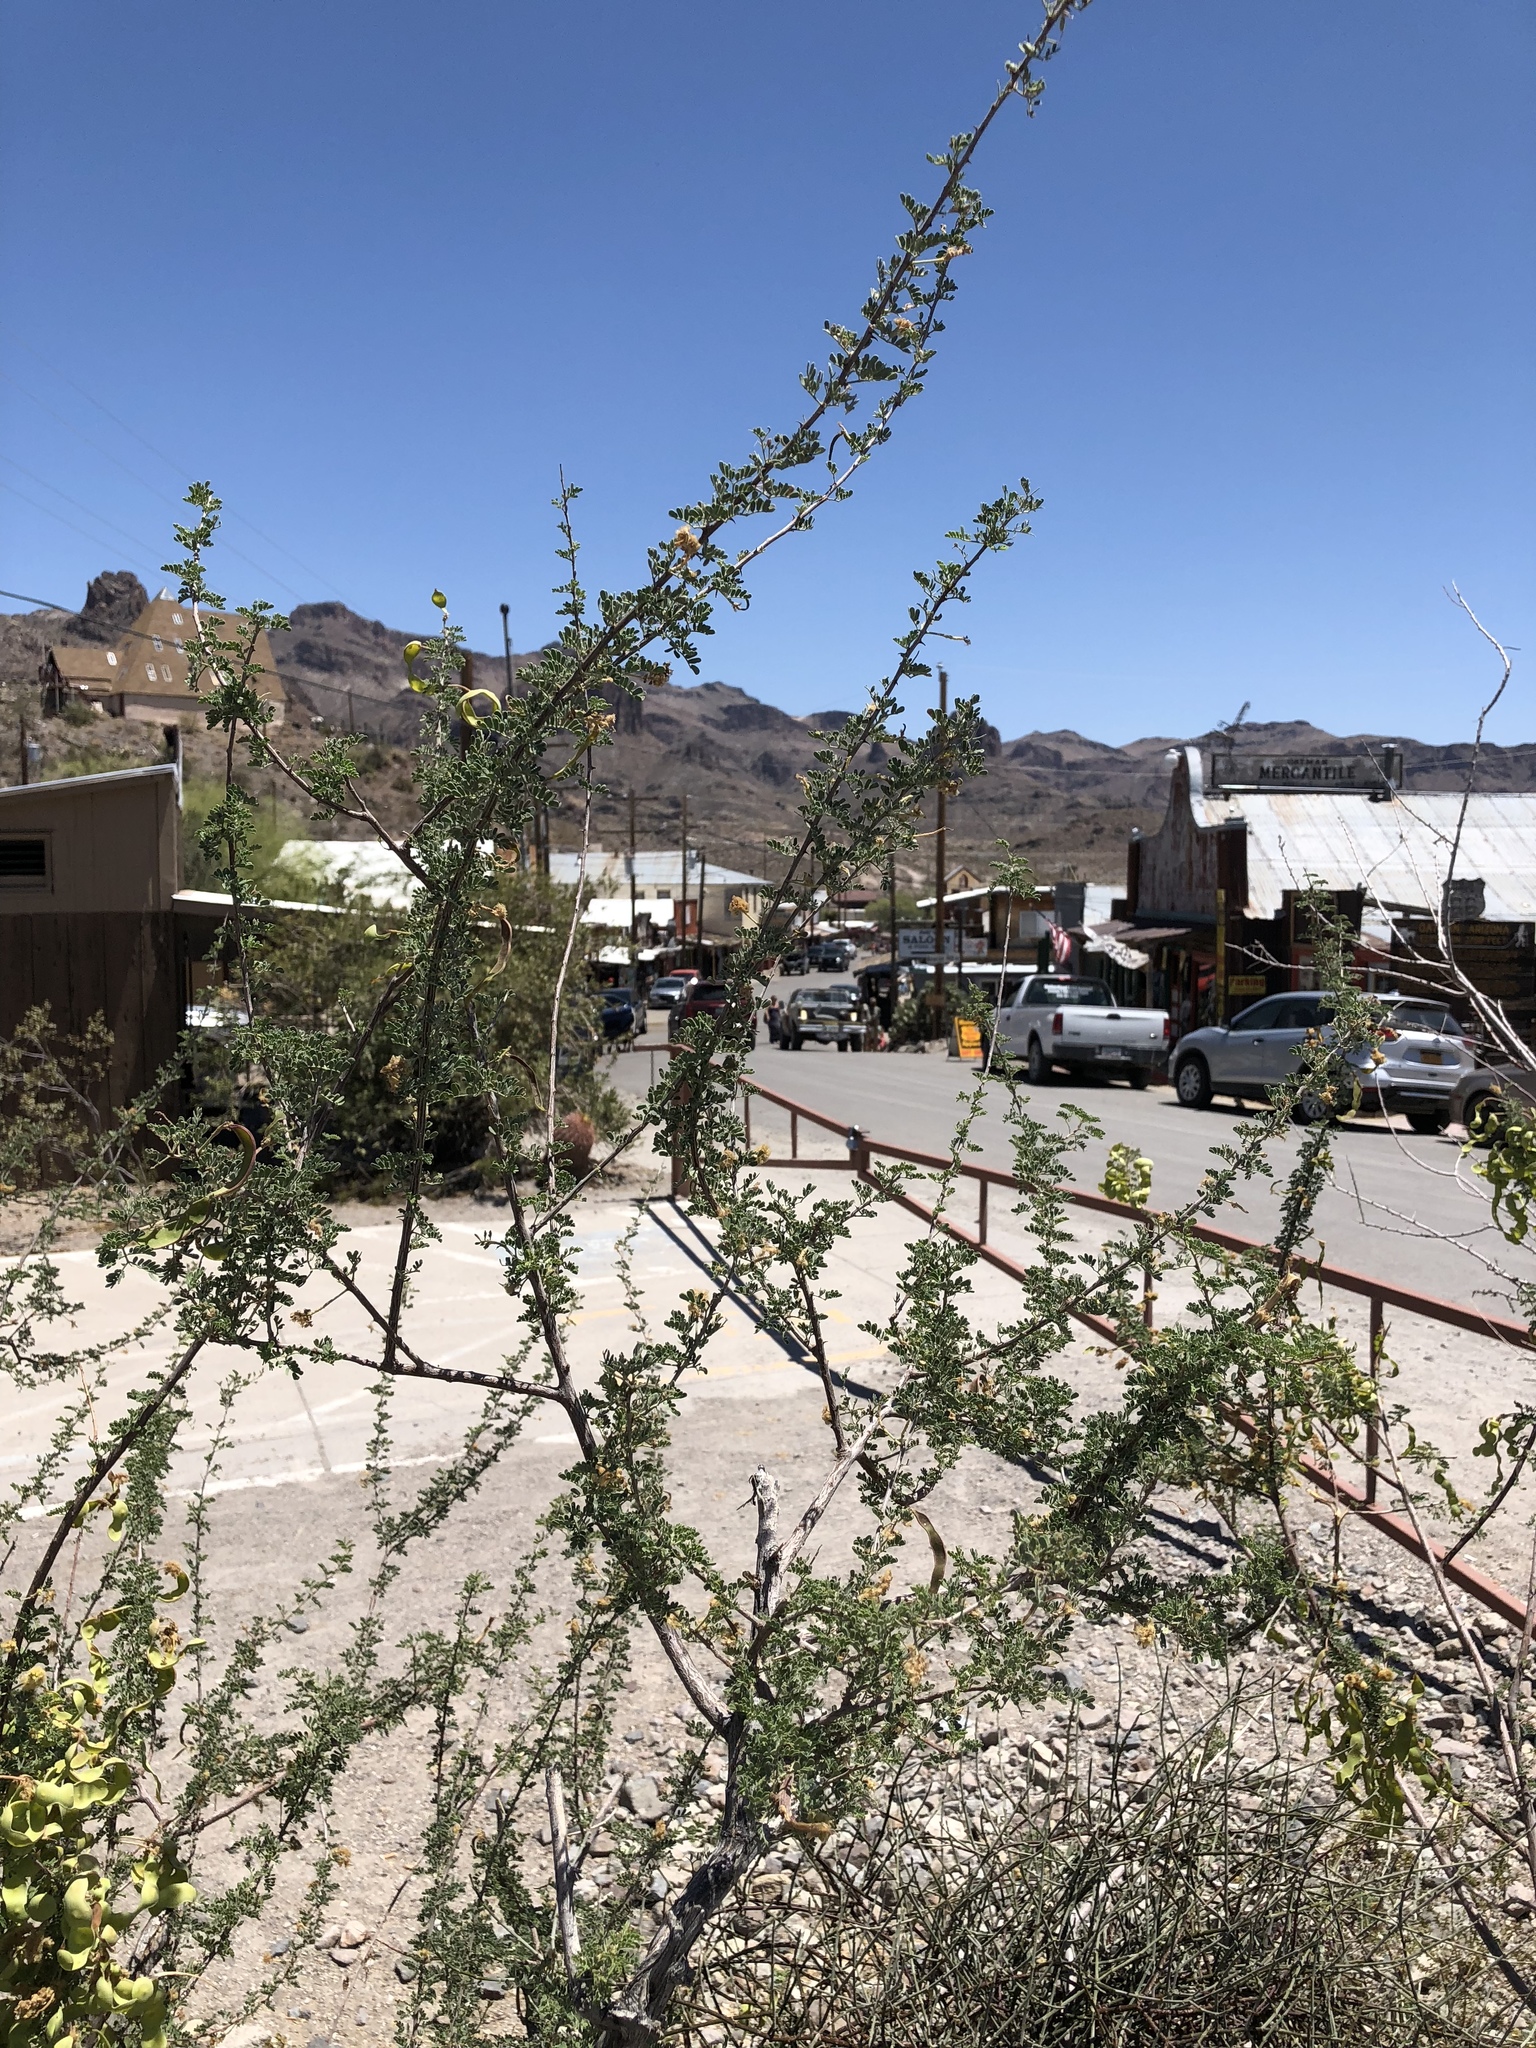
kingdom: Plantae
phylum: Tracheophyta
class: Magnoliopsida
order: Fabales
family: Fabaceae
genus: Senegalia
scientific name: Senegalia greggii
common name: Texas-mimosa
